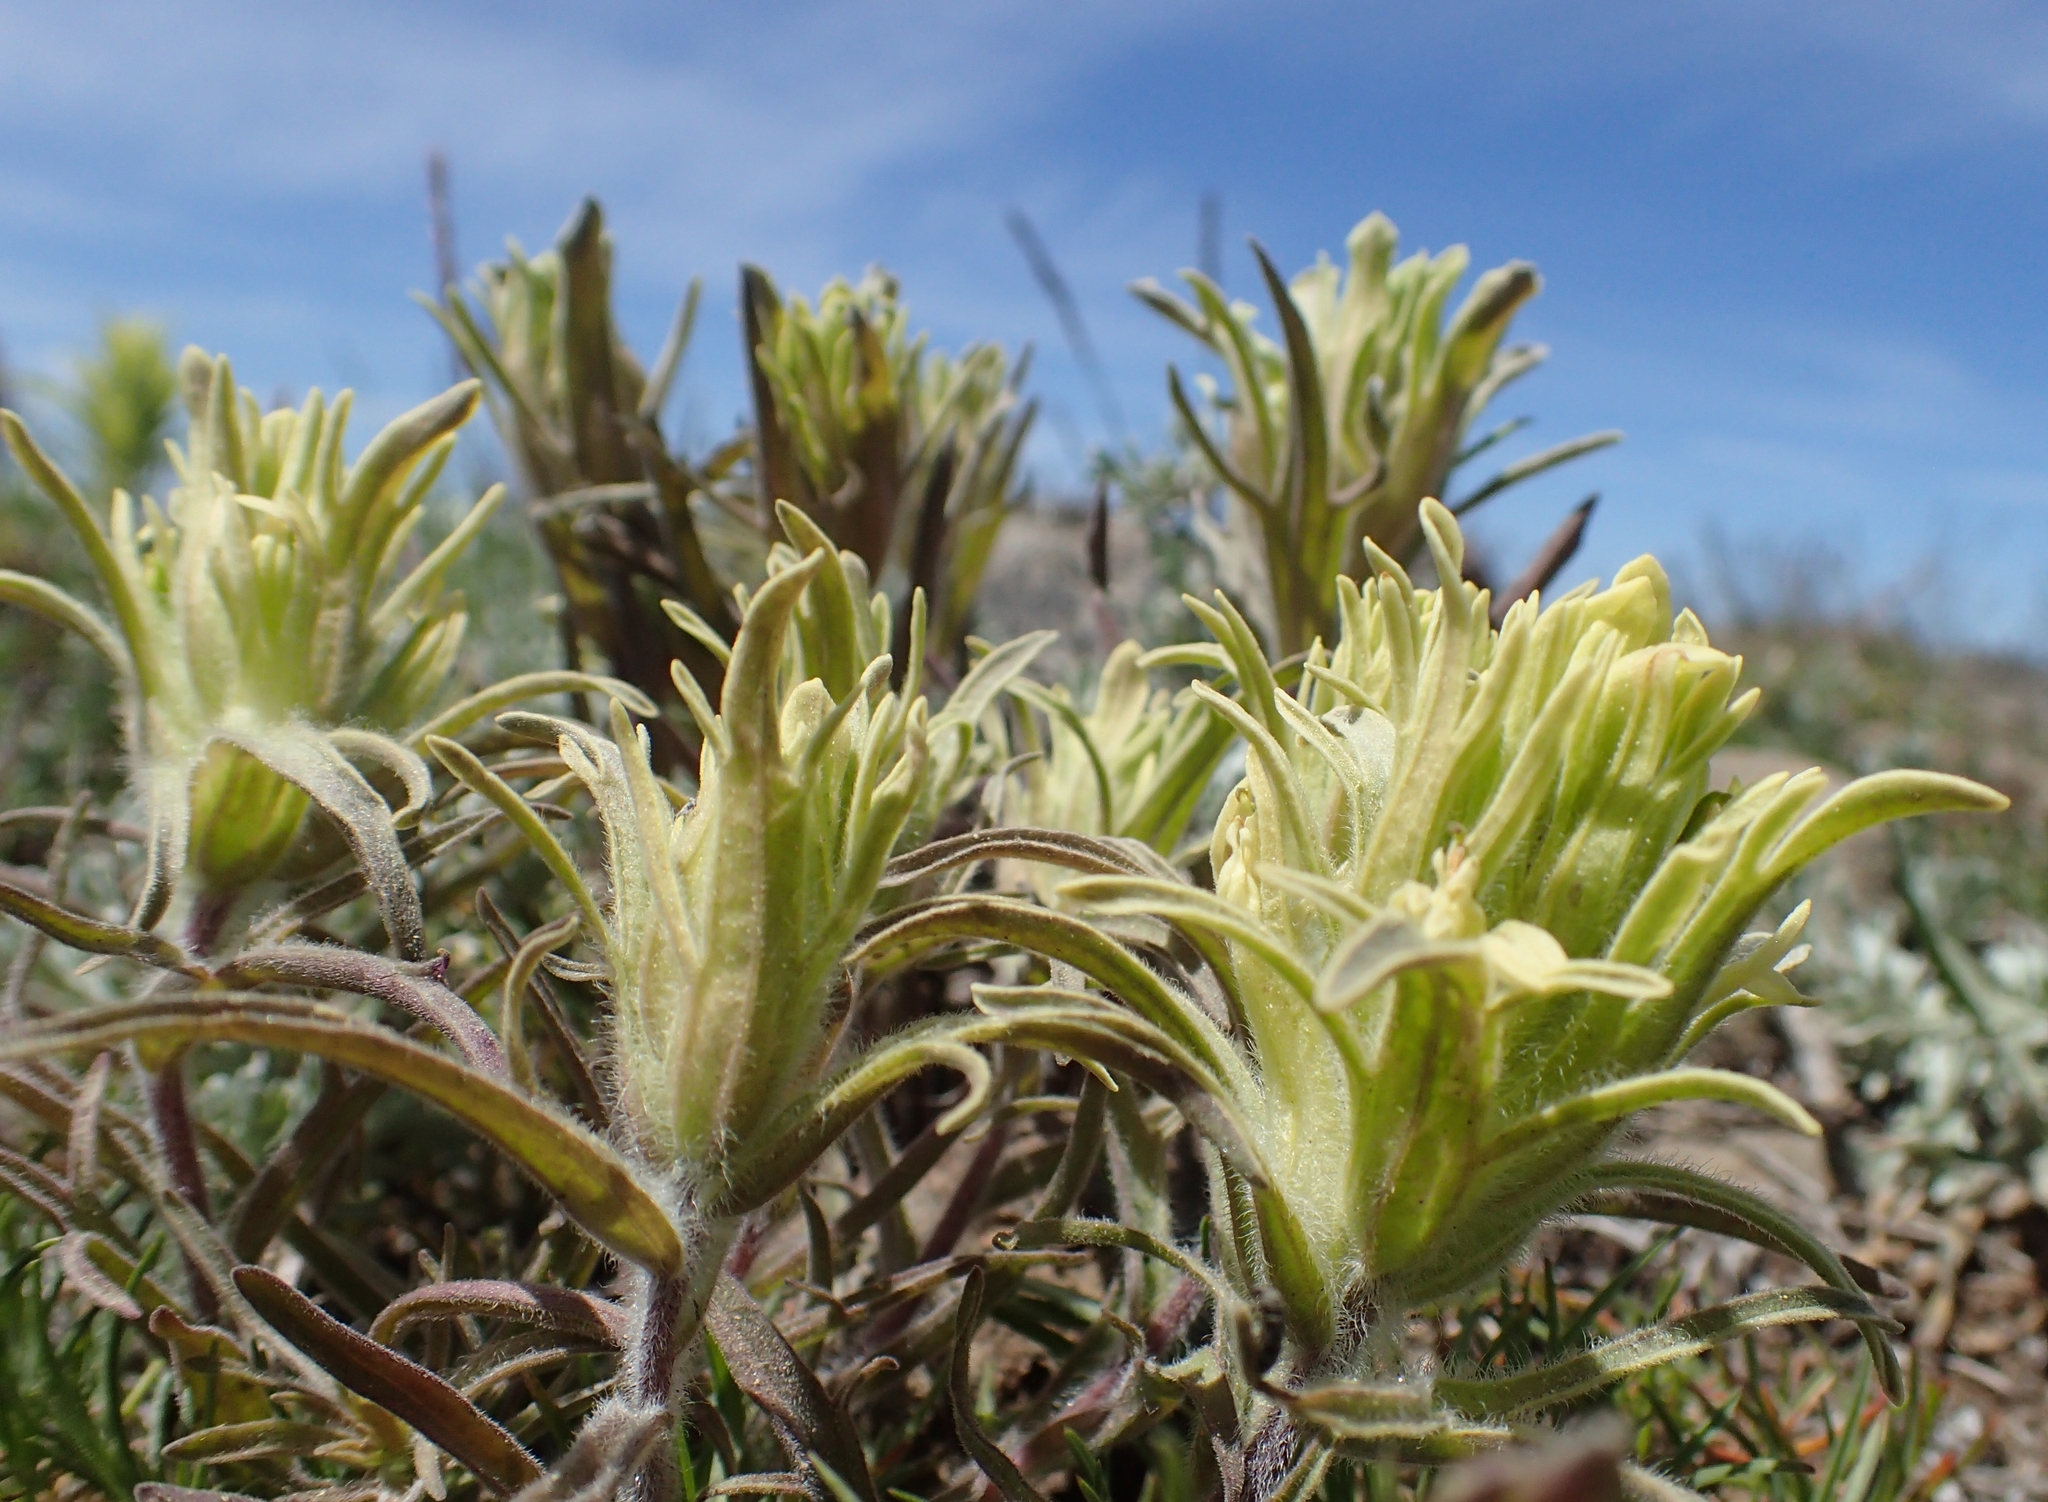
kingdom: Plantae
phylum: Tracheophyta
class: Magnoliopsida
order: Lamiales
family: Orobanchaceae
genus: Castilleja
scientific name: Castilleja pilosa
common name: Hairy paintbrush
